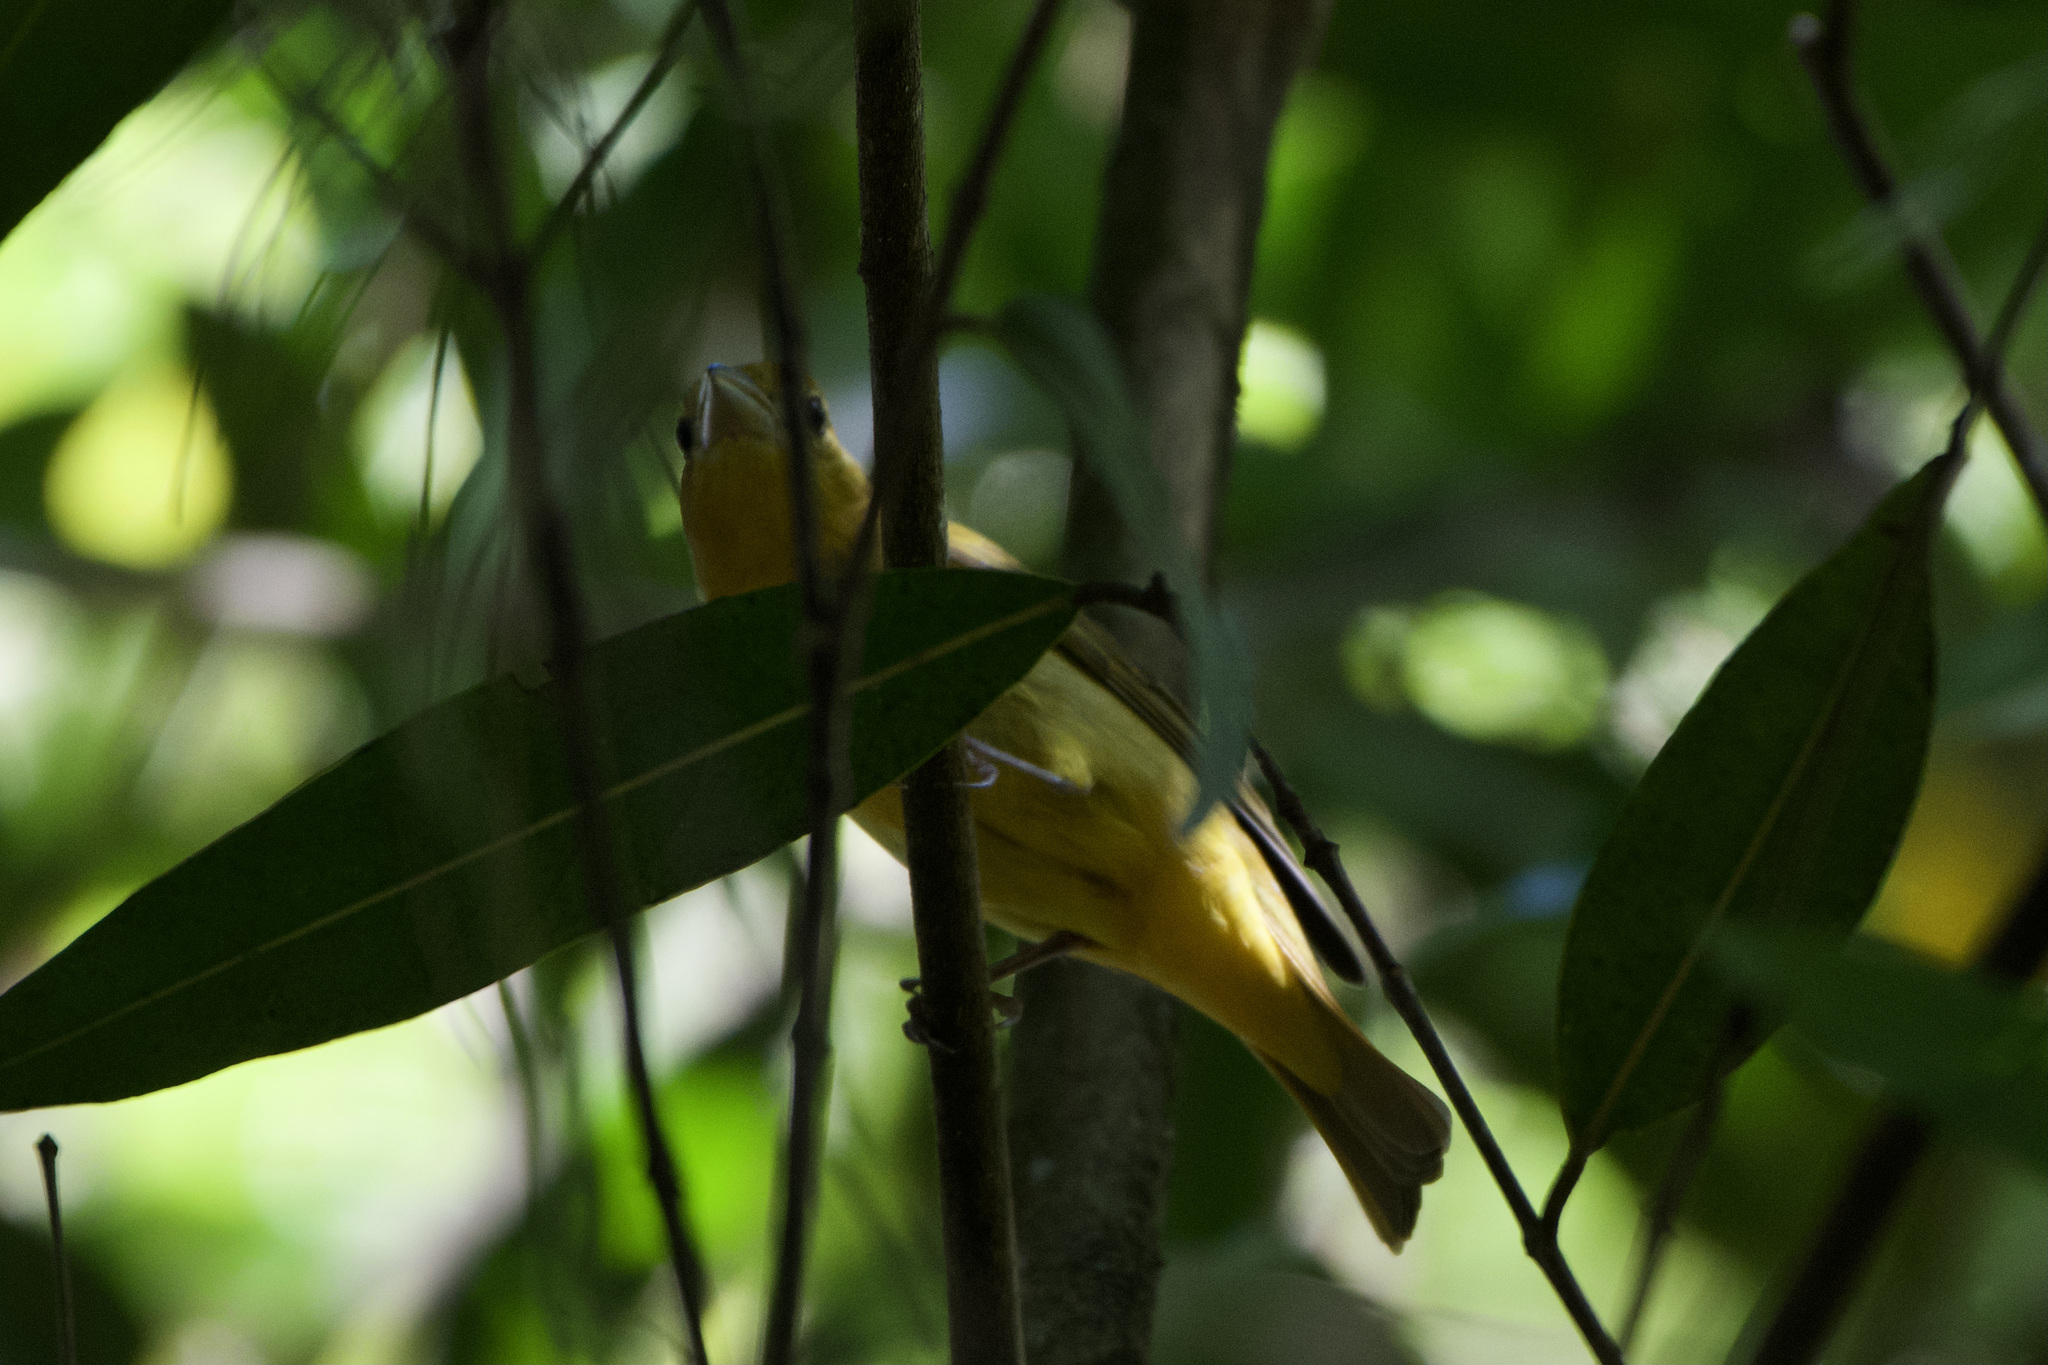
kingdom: Animalia
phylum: Chordata
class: Aves
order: Passeriformes
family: Cardinalidae
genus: Piranga
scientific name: Piranga rubra
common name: Summer tanager
